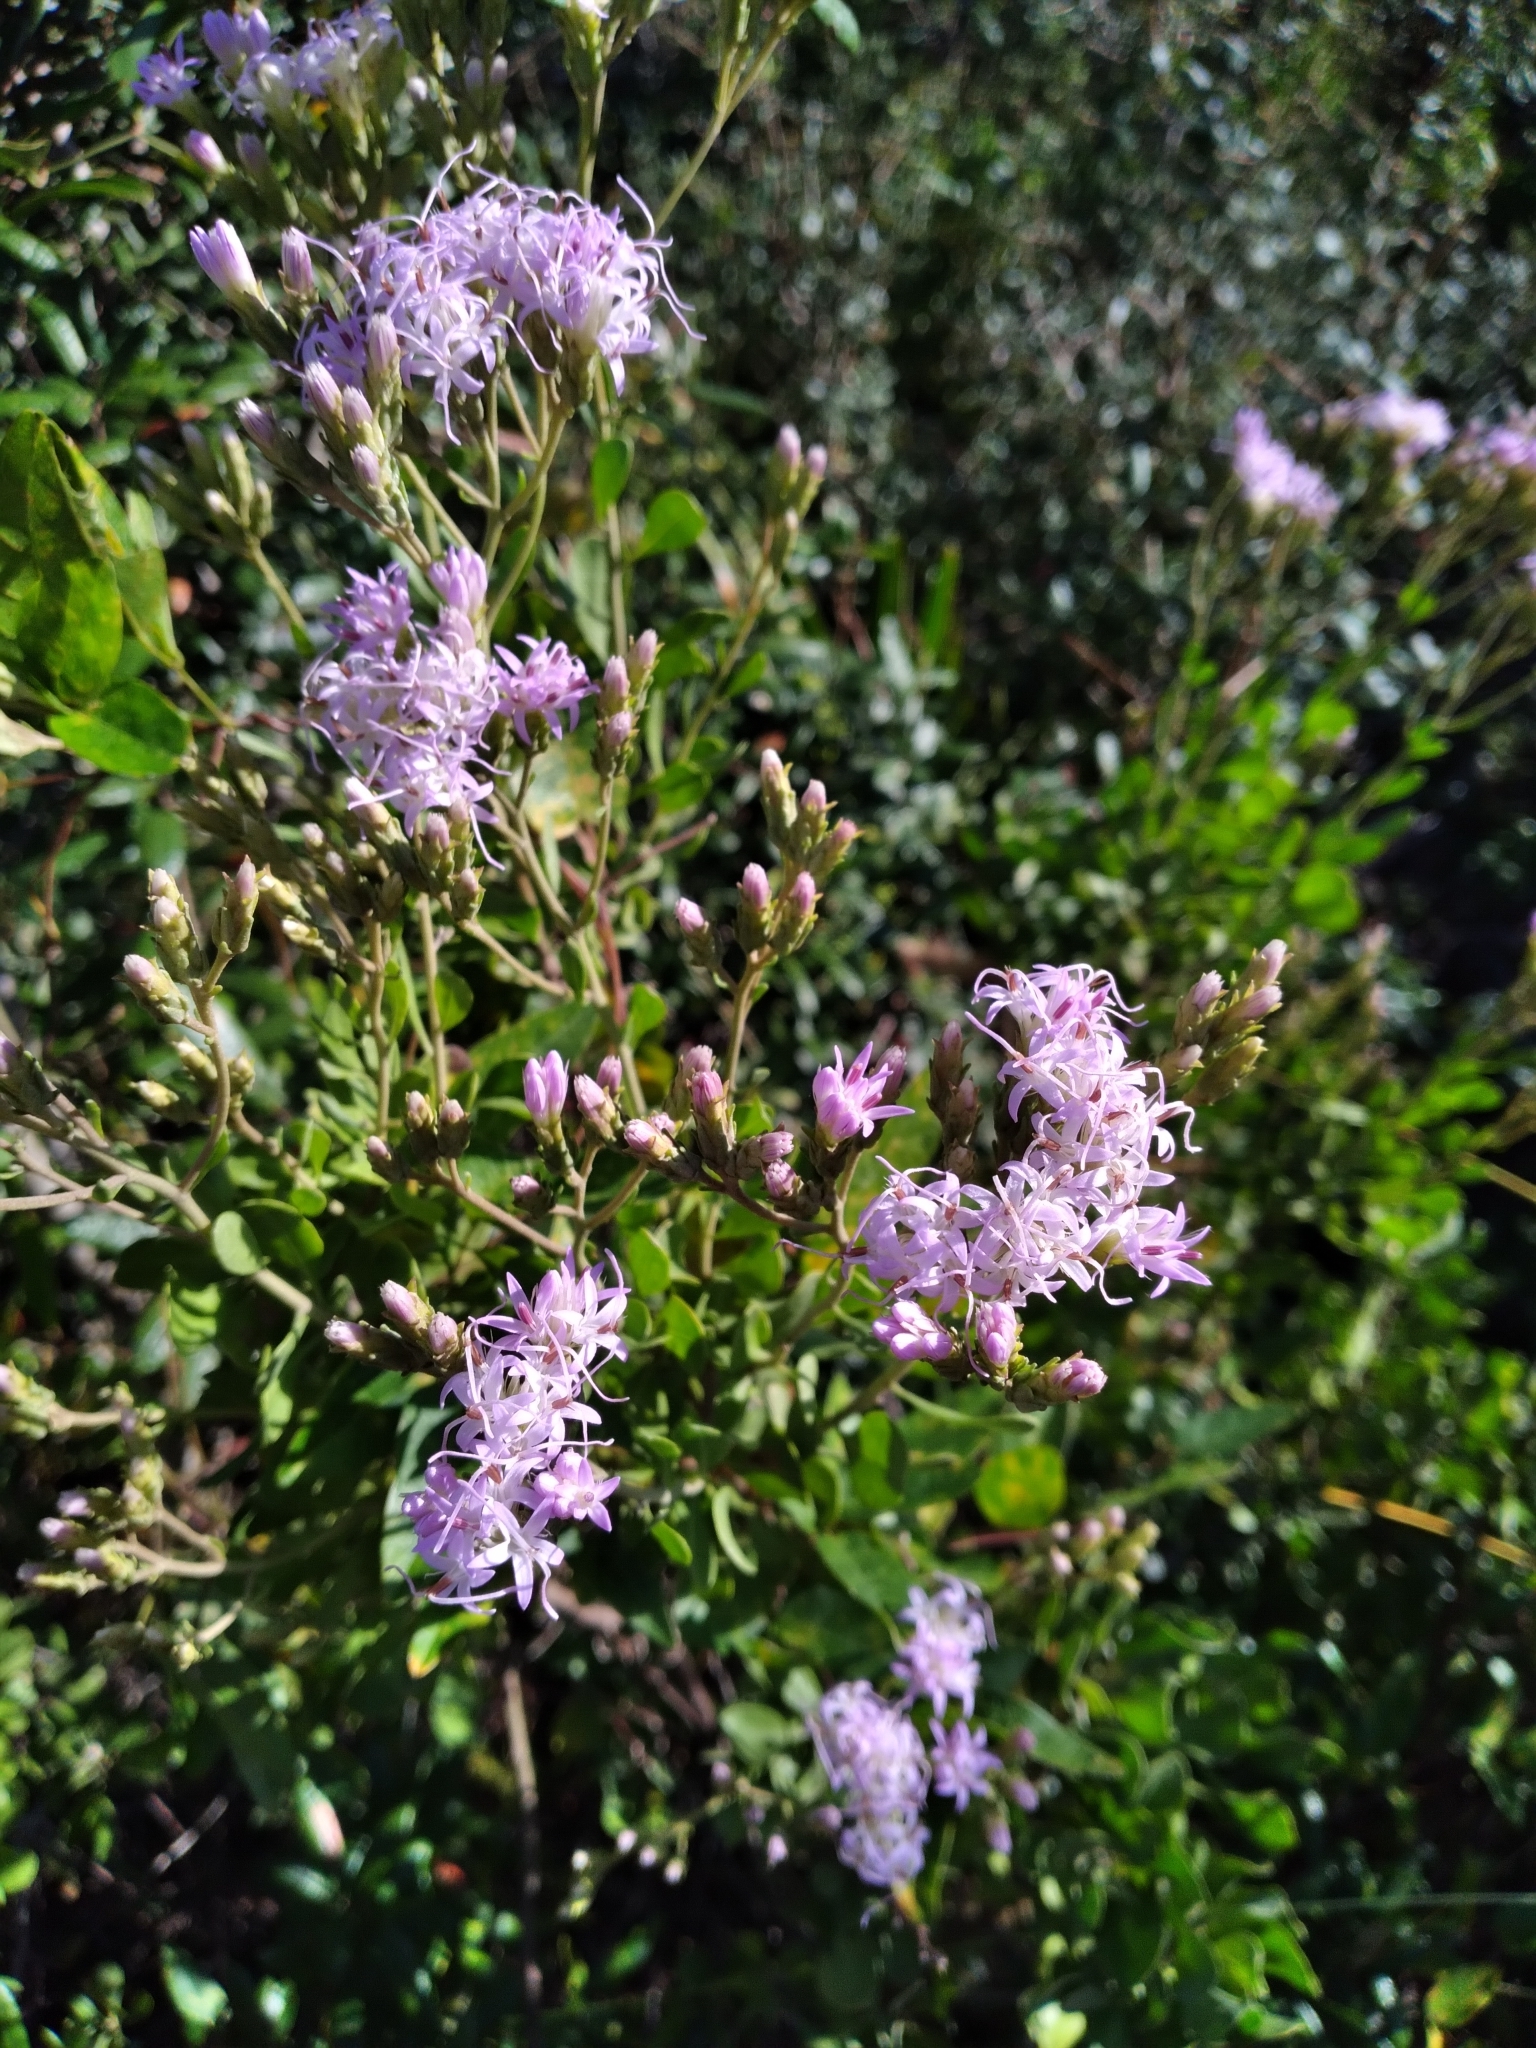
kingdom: Plantae
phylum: Tracheophyta
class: Magnoliopsida
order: Asterales
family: Asteraceae
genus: Garberia
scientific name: Garberia heterophylla
